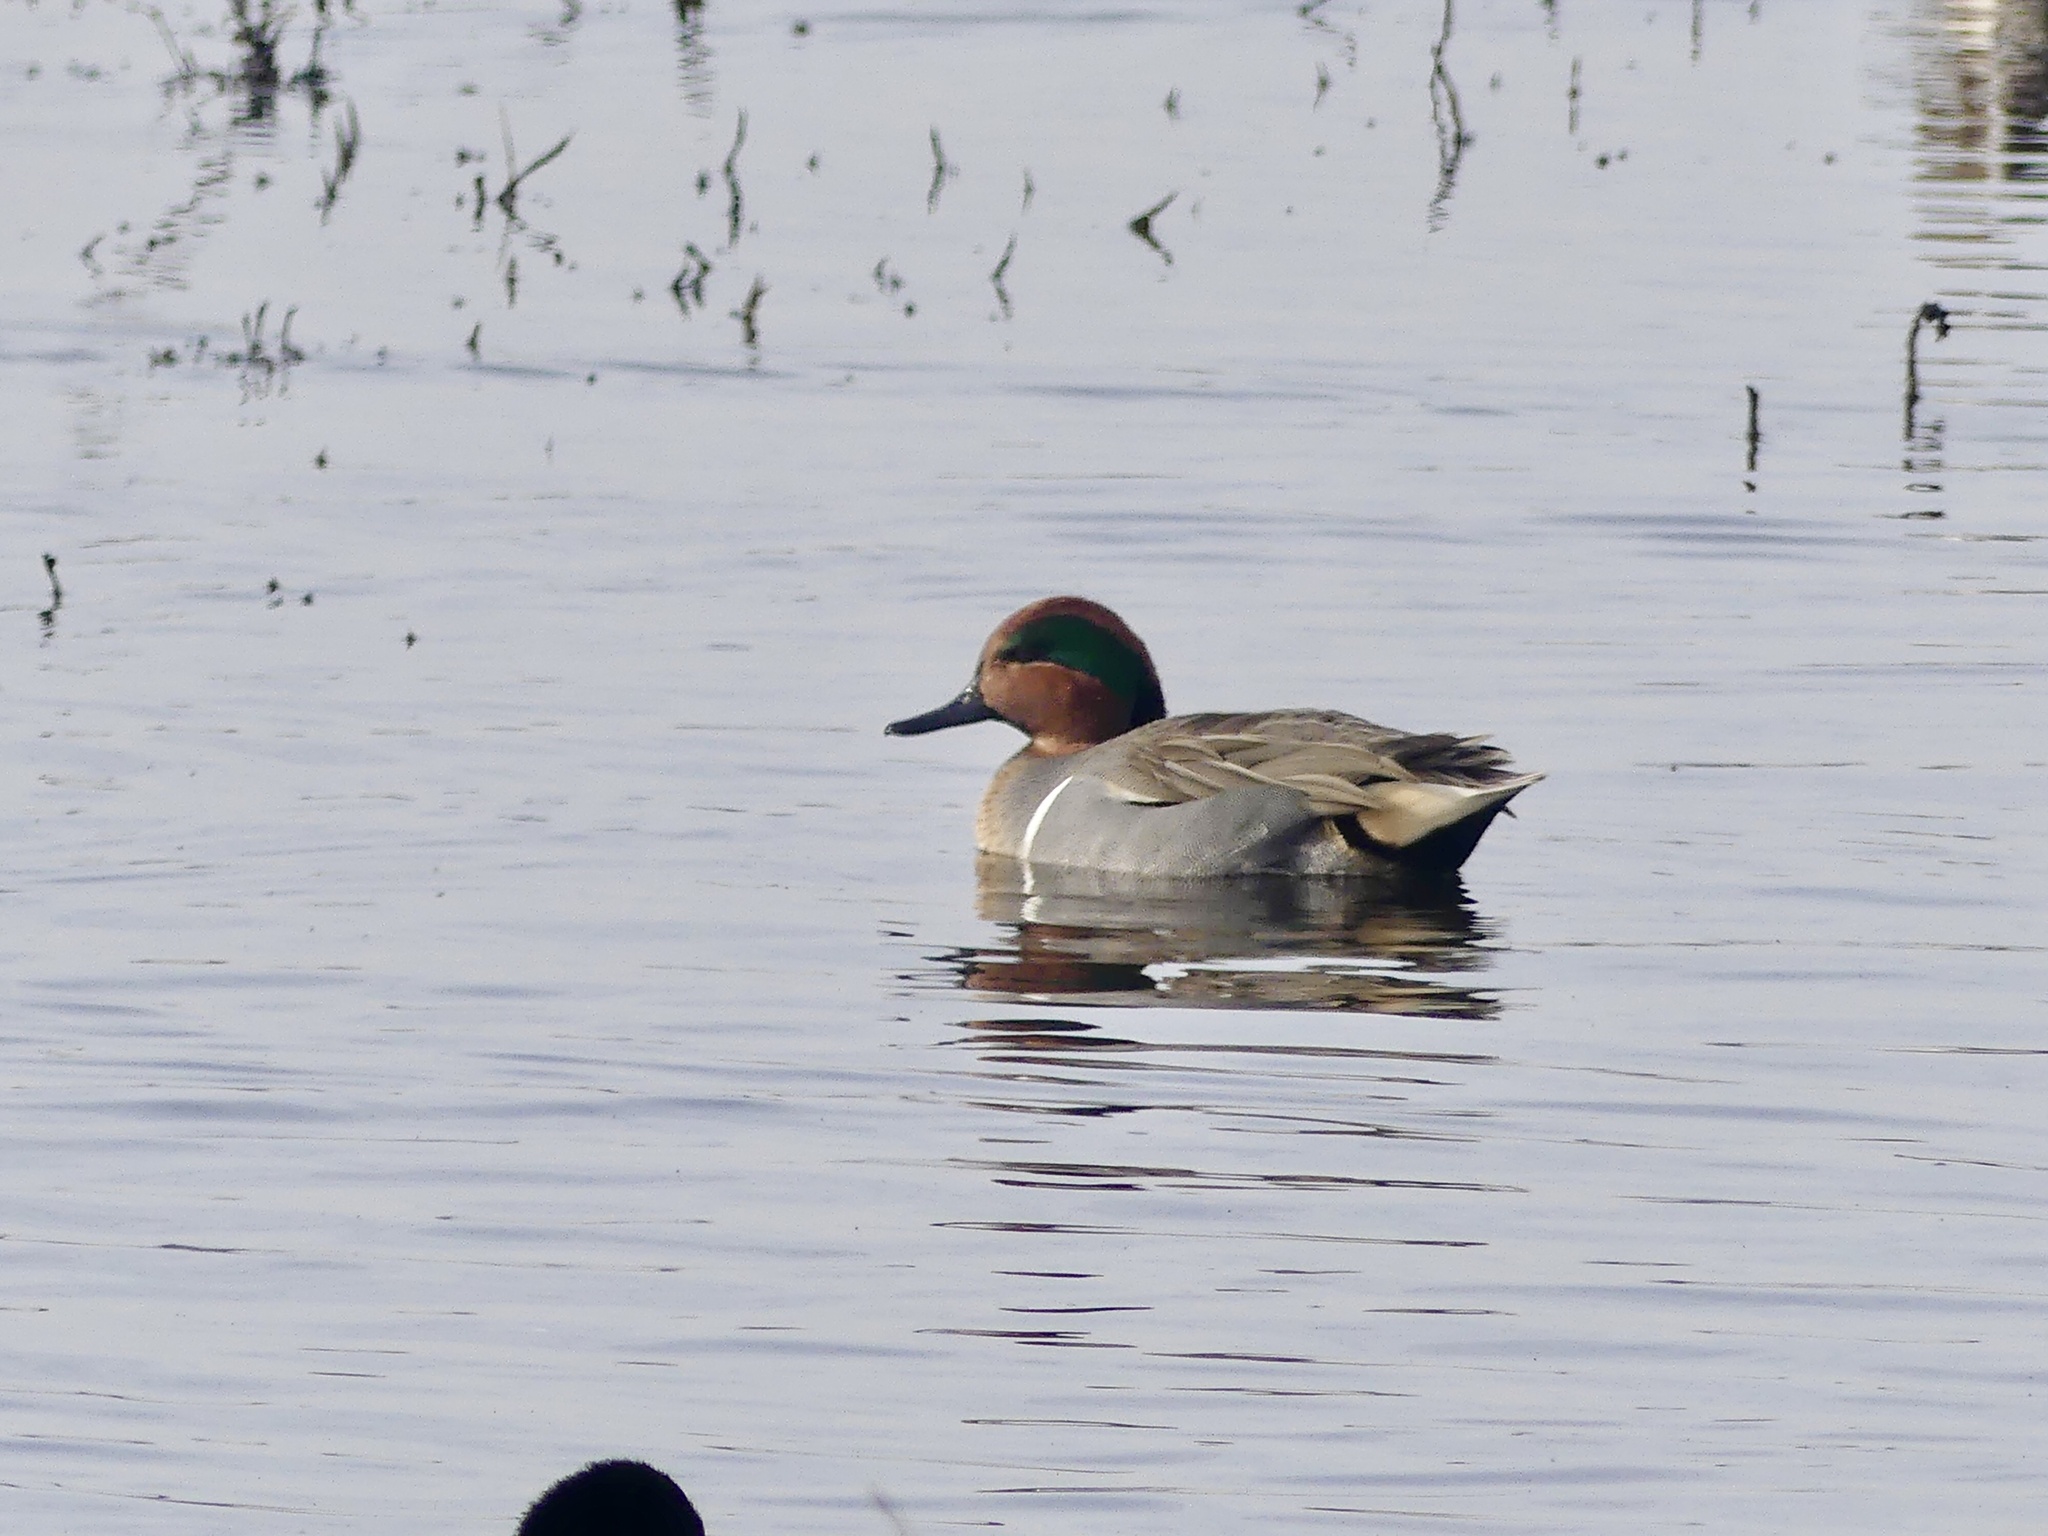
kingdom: Animalia
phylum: Chordata
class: Aves
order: Anseriformes
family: Anatidae
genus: Anas
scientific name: Anas crecca
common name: Eurasian teal
